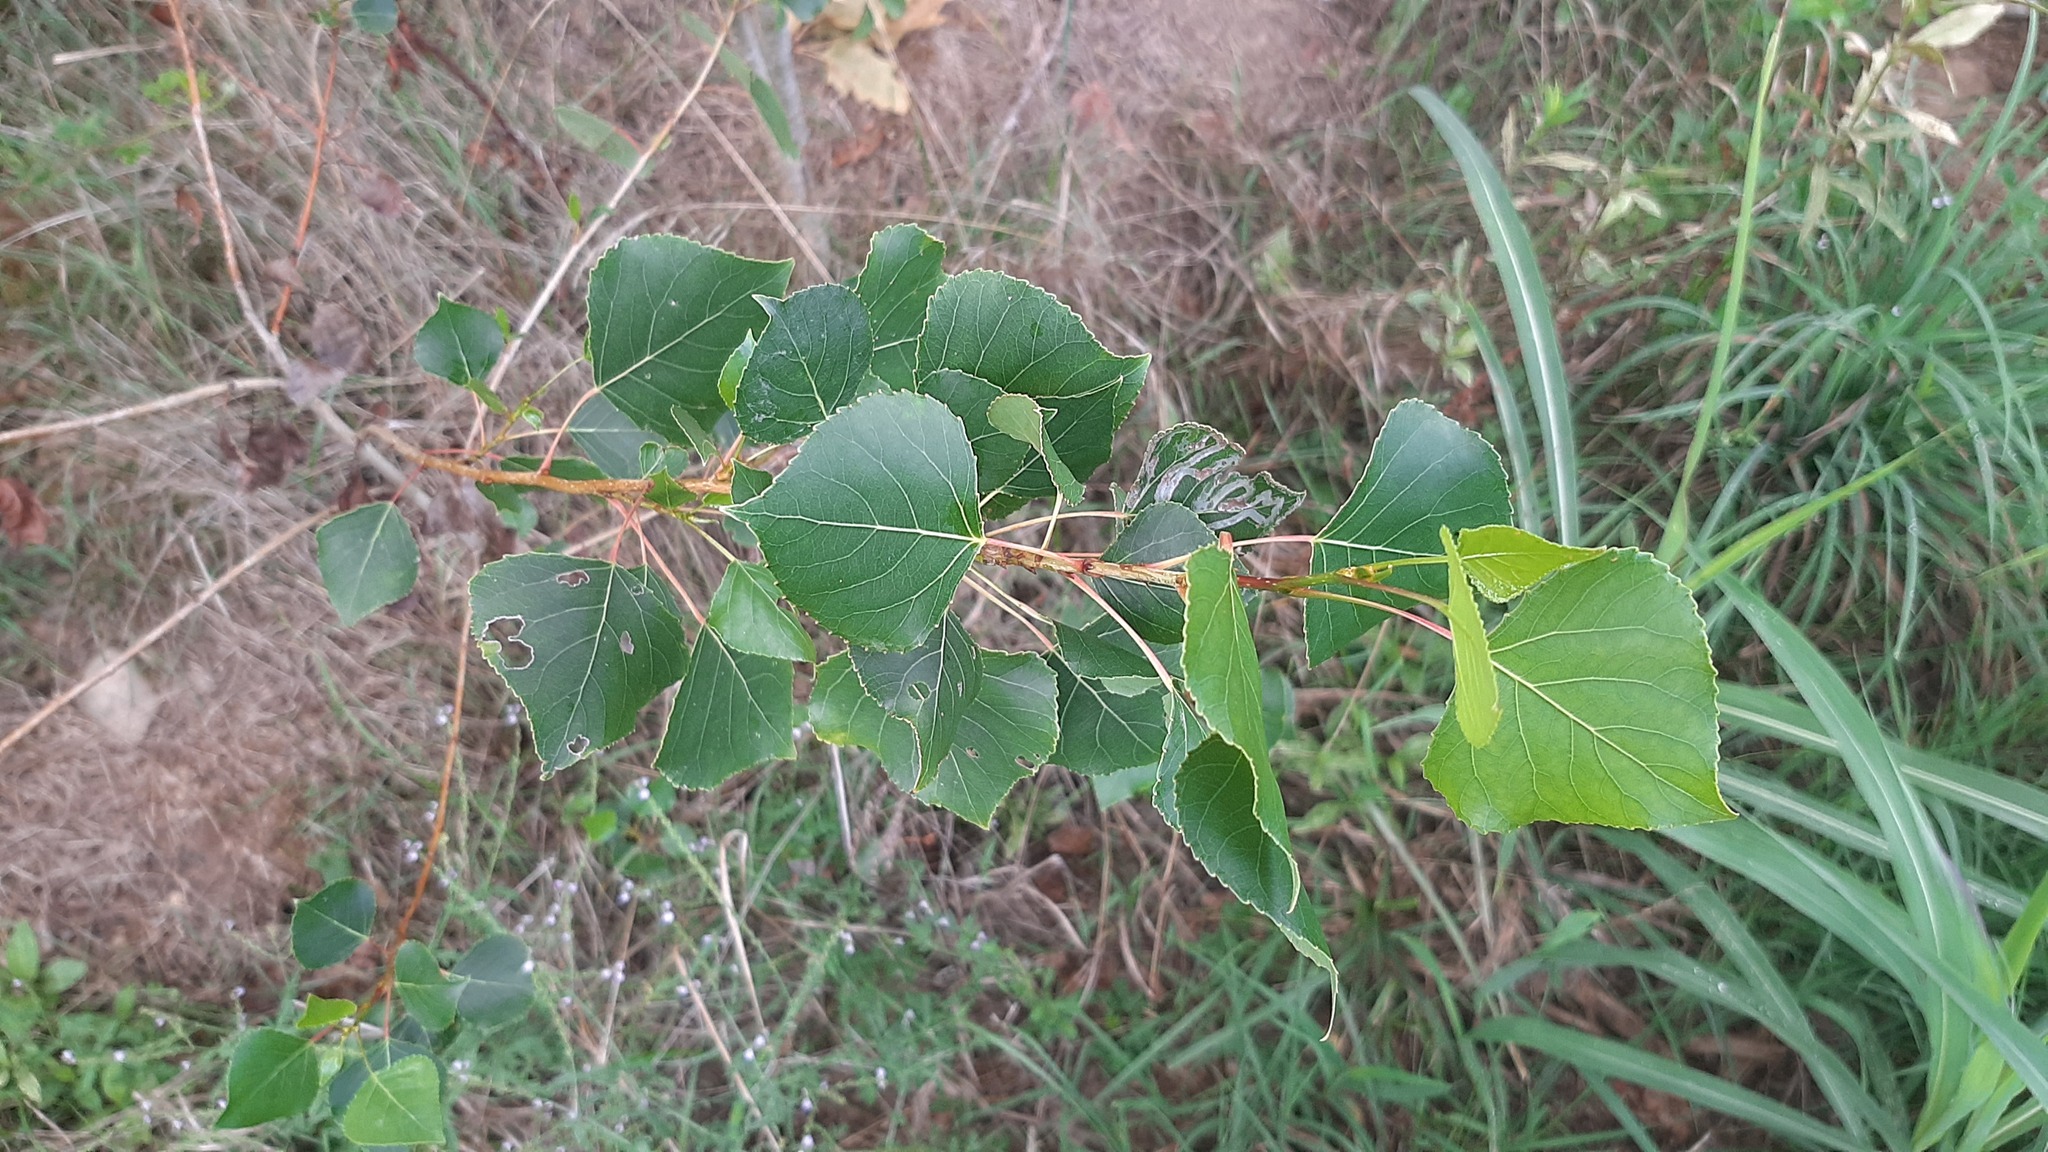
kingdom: Plantae
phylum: Tracheophyta
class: Magnoliopsida
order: Lamiales
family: Verbenaceae
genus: Verbena
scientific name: Verbena officinalis
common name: Vervain
